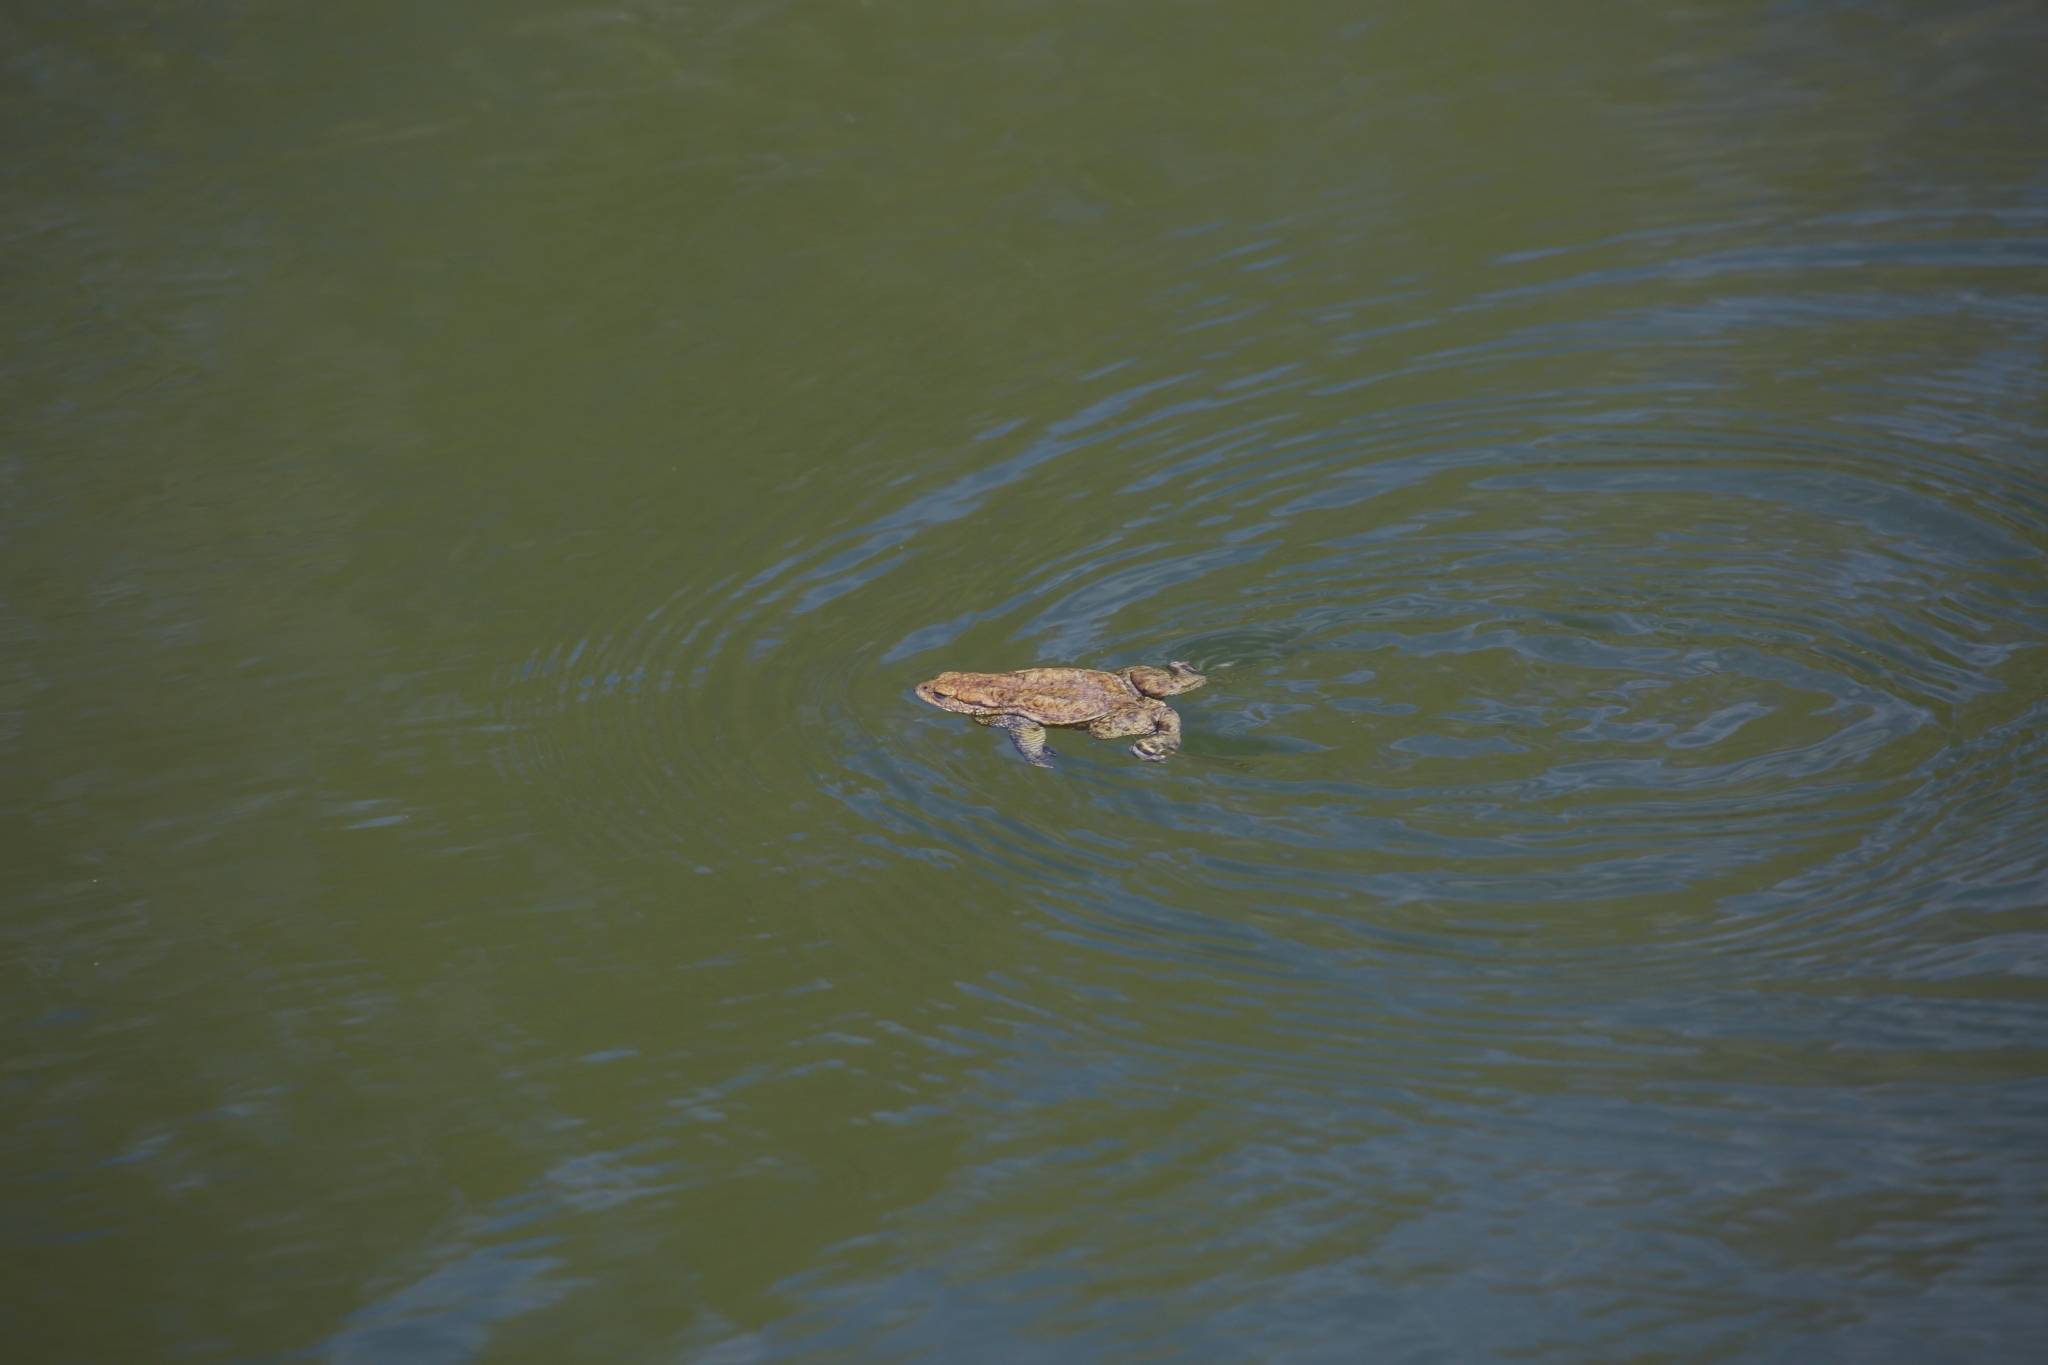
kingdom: Animalia
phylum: Chordata
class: Amphibia
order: Anura
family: Bufonidae
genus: Bufo
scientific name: Bufo bufo
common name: Common toad
